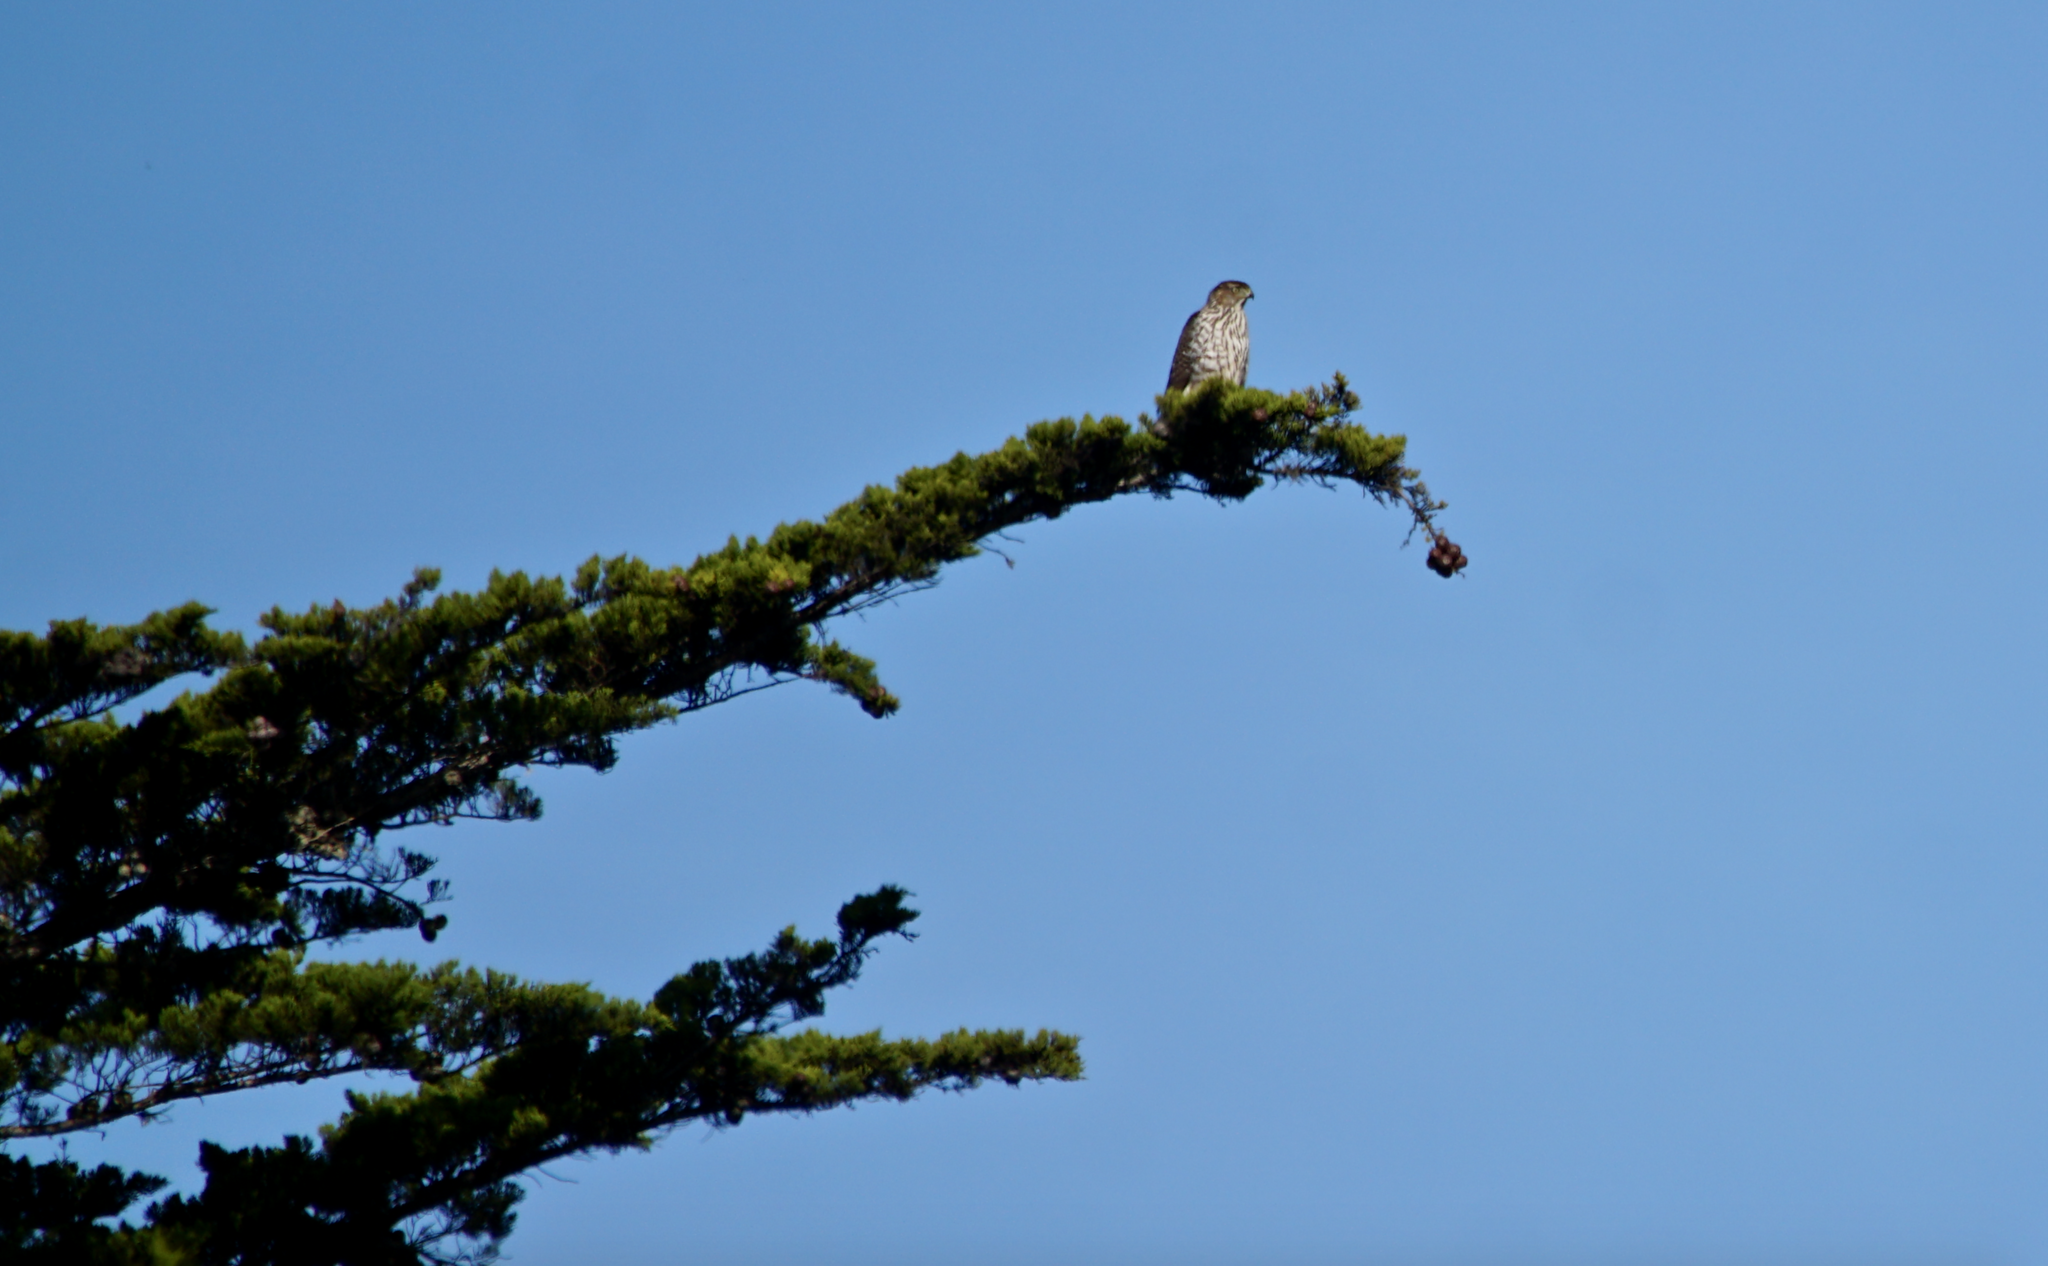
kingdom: Animalia
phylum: Chordata
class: Aves
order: Accipitriformes
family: Accipitridae
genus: Accipiter
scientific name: Accipiter cooperii
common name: Cooper's hawk
